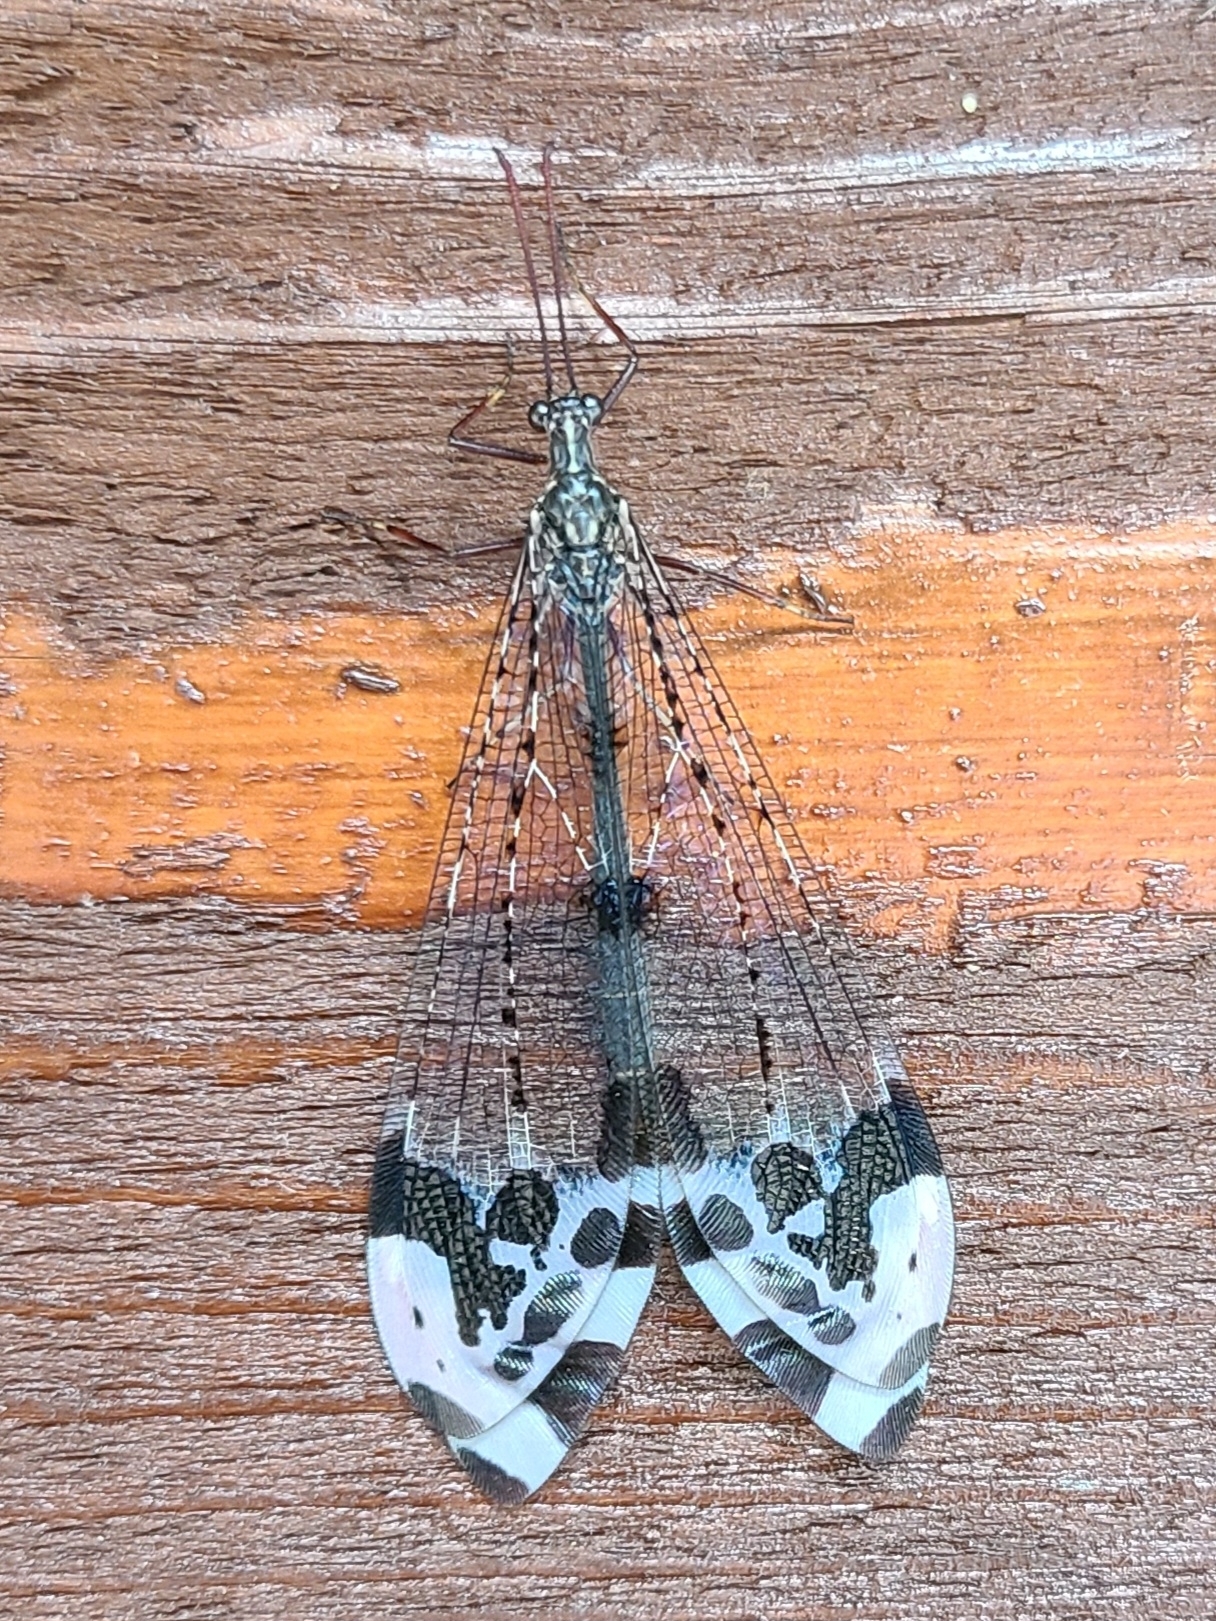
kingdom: Animalia
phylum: Arthropoda
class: Insecta
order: Neuroptera
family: Myrmeleontidae
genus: Glenurus
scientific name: Glenurus gratus
